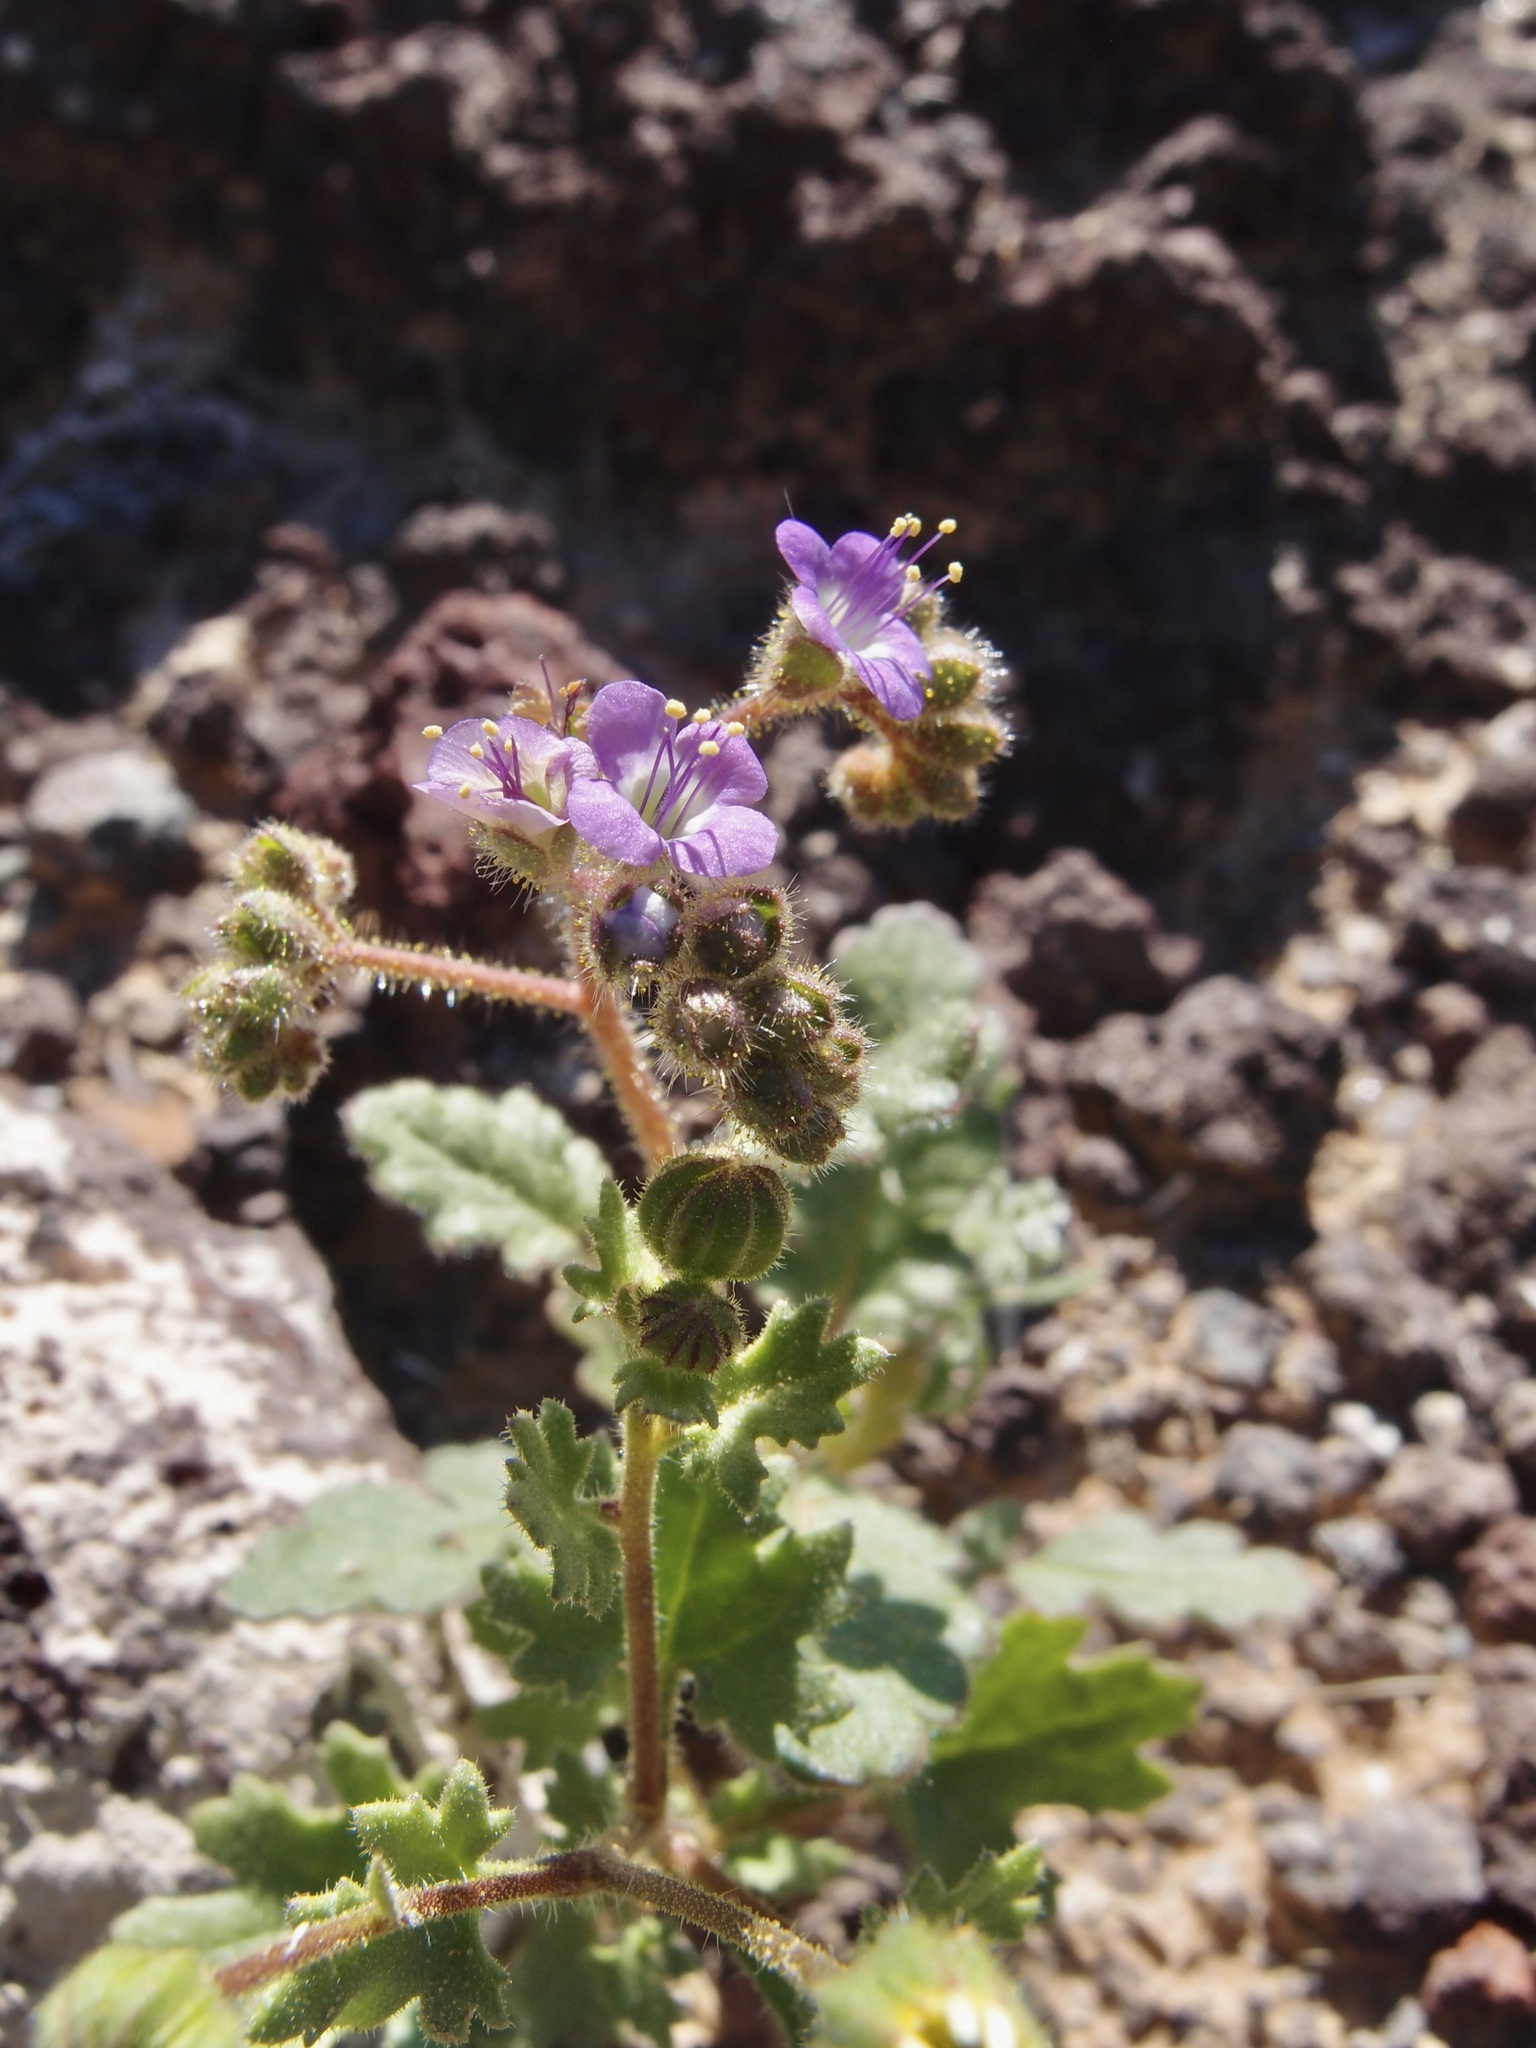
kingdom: Plantae
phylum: Tracheophyta
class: Magnoliopsida
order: Boraginales
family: Hydrophyllaceae
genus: Phacelia
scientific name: Phacelia crenulata
